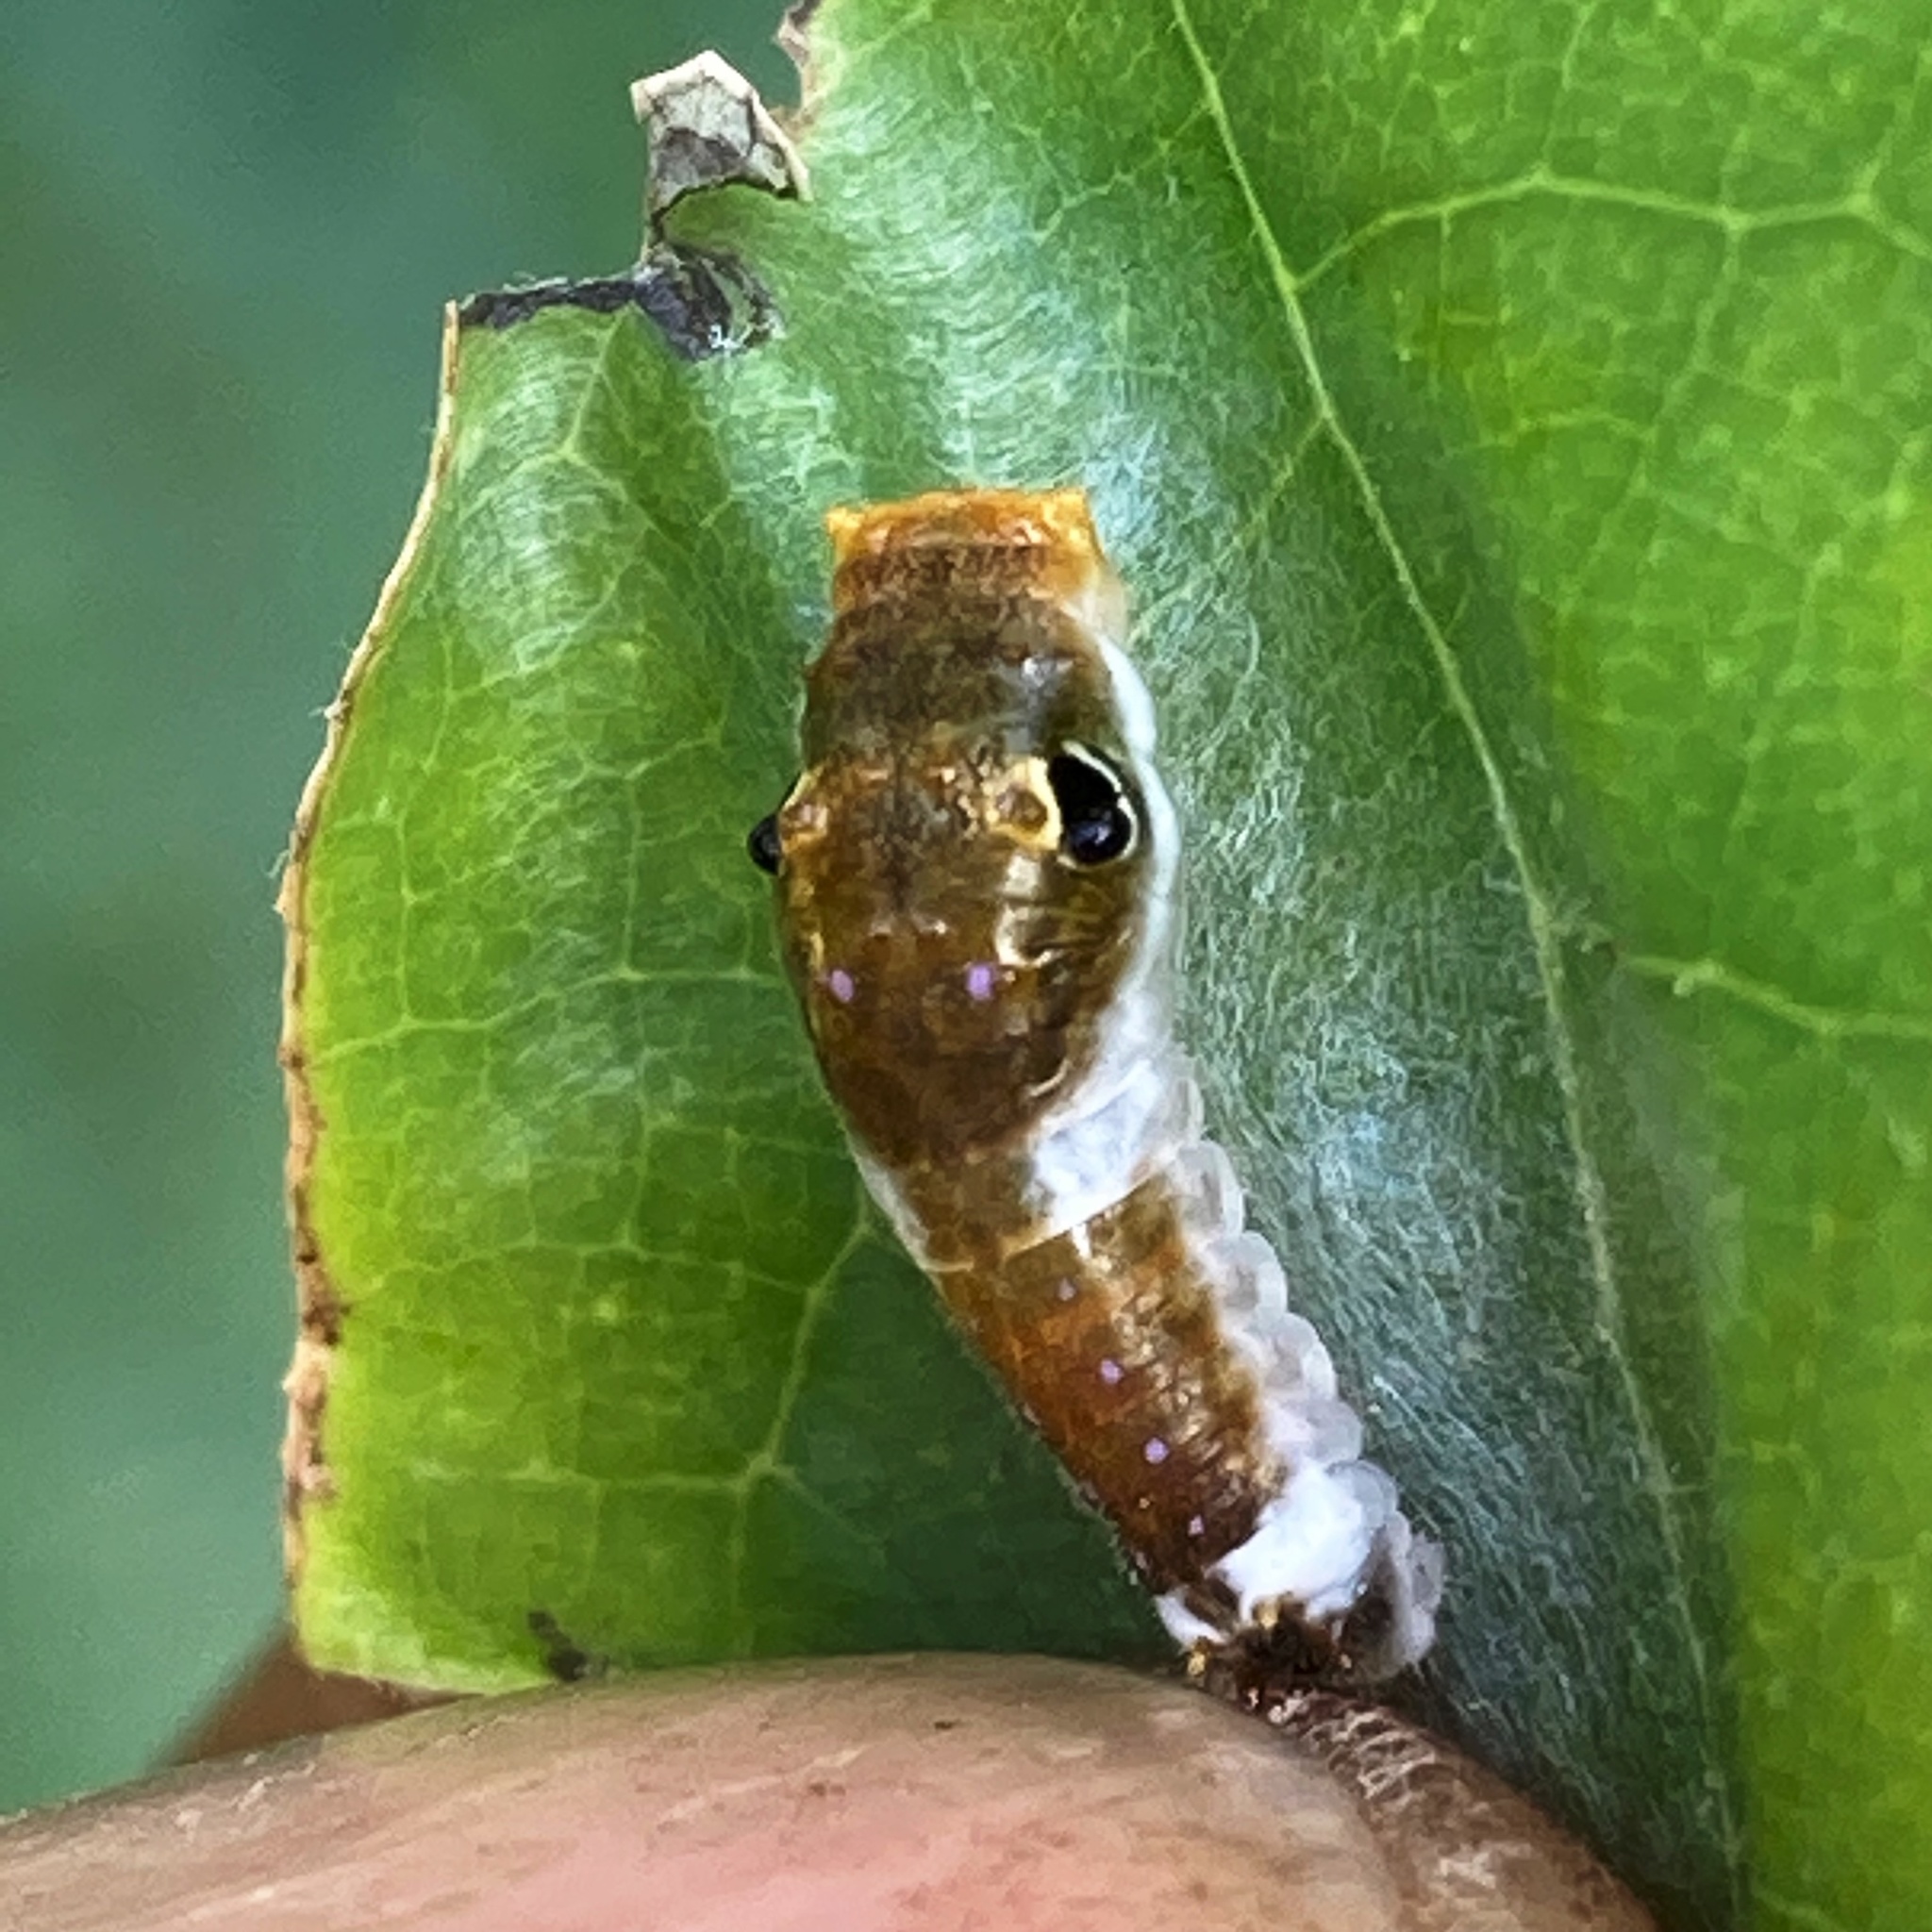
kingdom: Animalia
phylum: Arthropoda
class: Insecta
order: Lepidoptera
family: Papilionidae
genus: Papilio
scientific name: Papilio troilus
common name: Spicebush swallowtail
